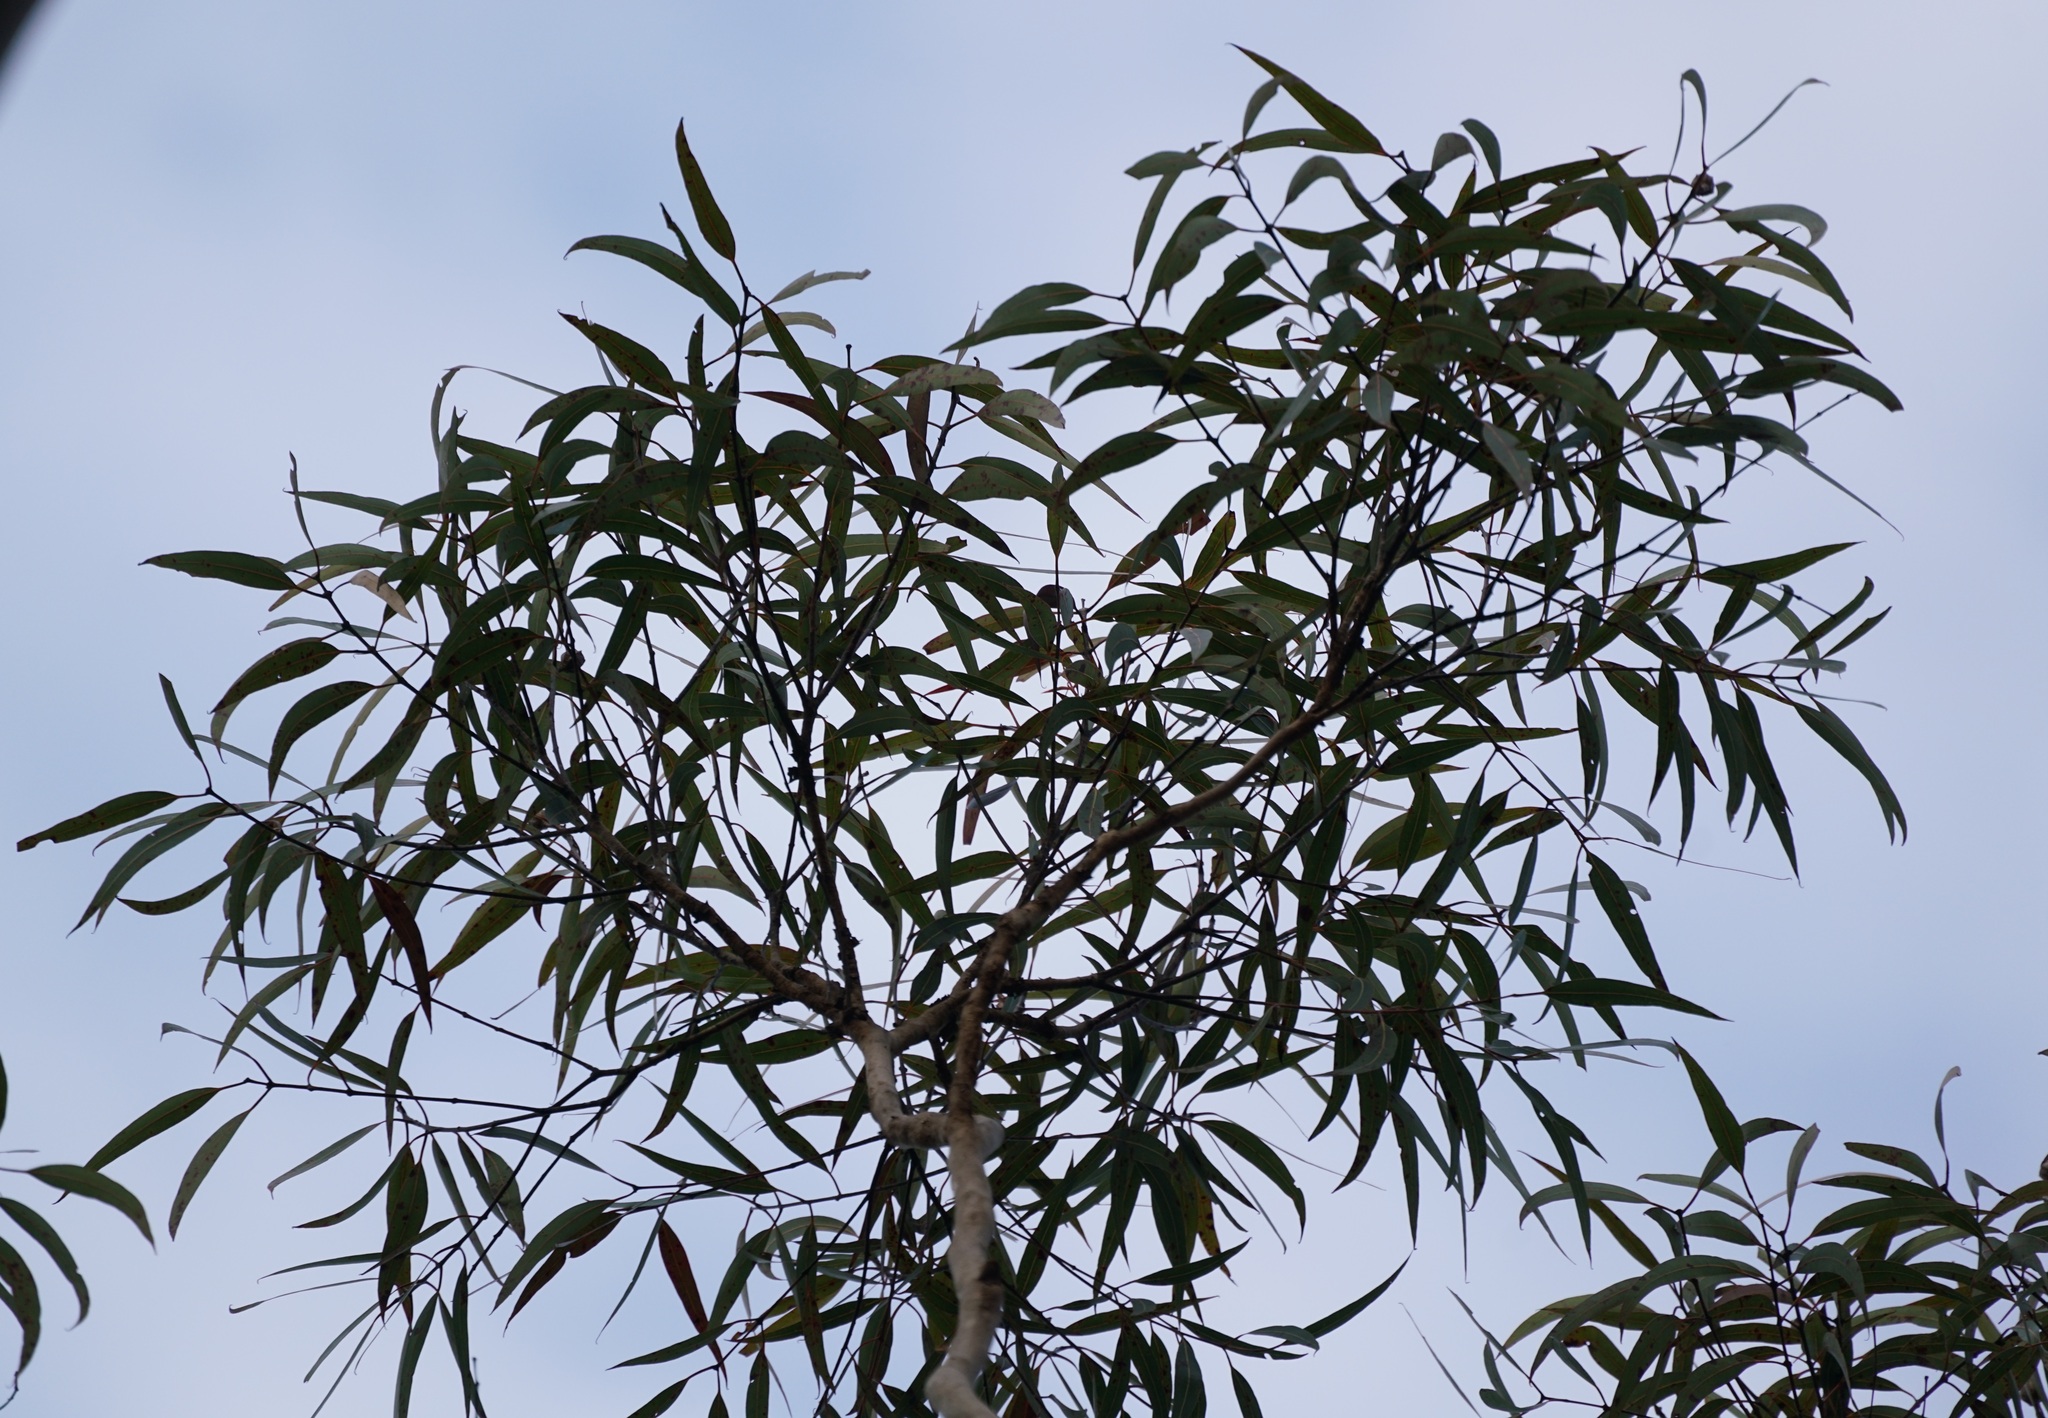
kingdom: Plantae
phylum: Tracheophyta
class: Magnoliopsida
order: Myrtales
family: Myrtaceae
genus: Angophora
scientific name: Angophora costata
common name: Gum myrtle
